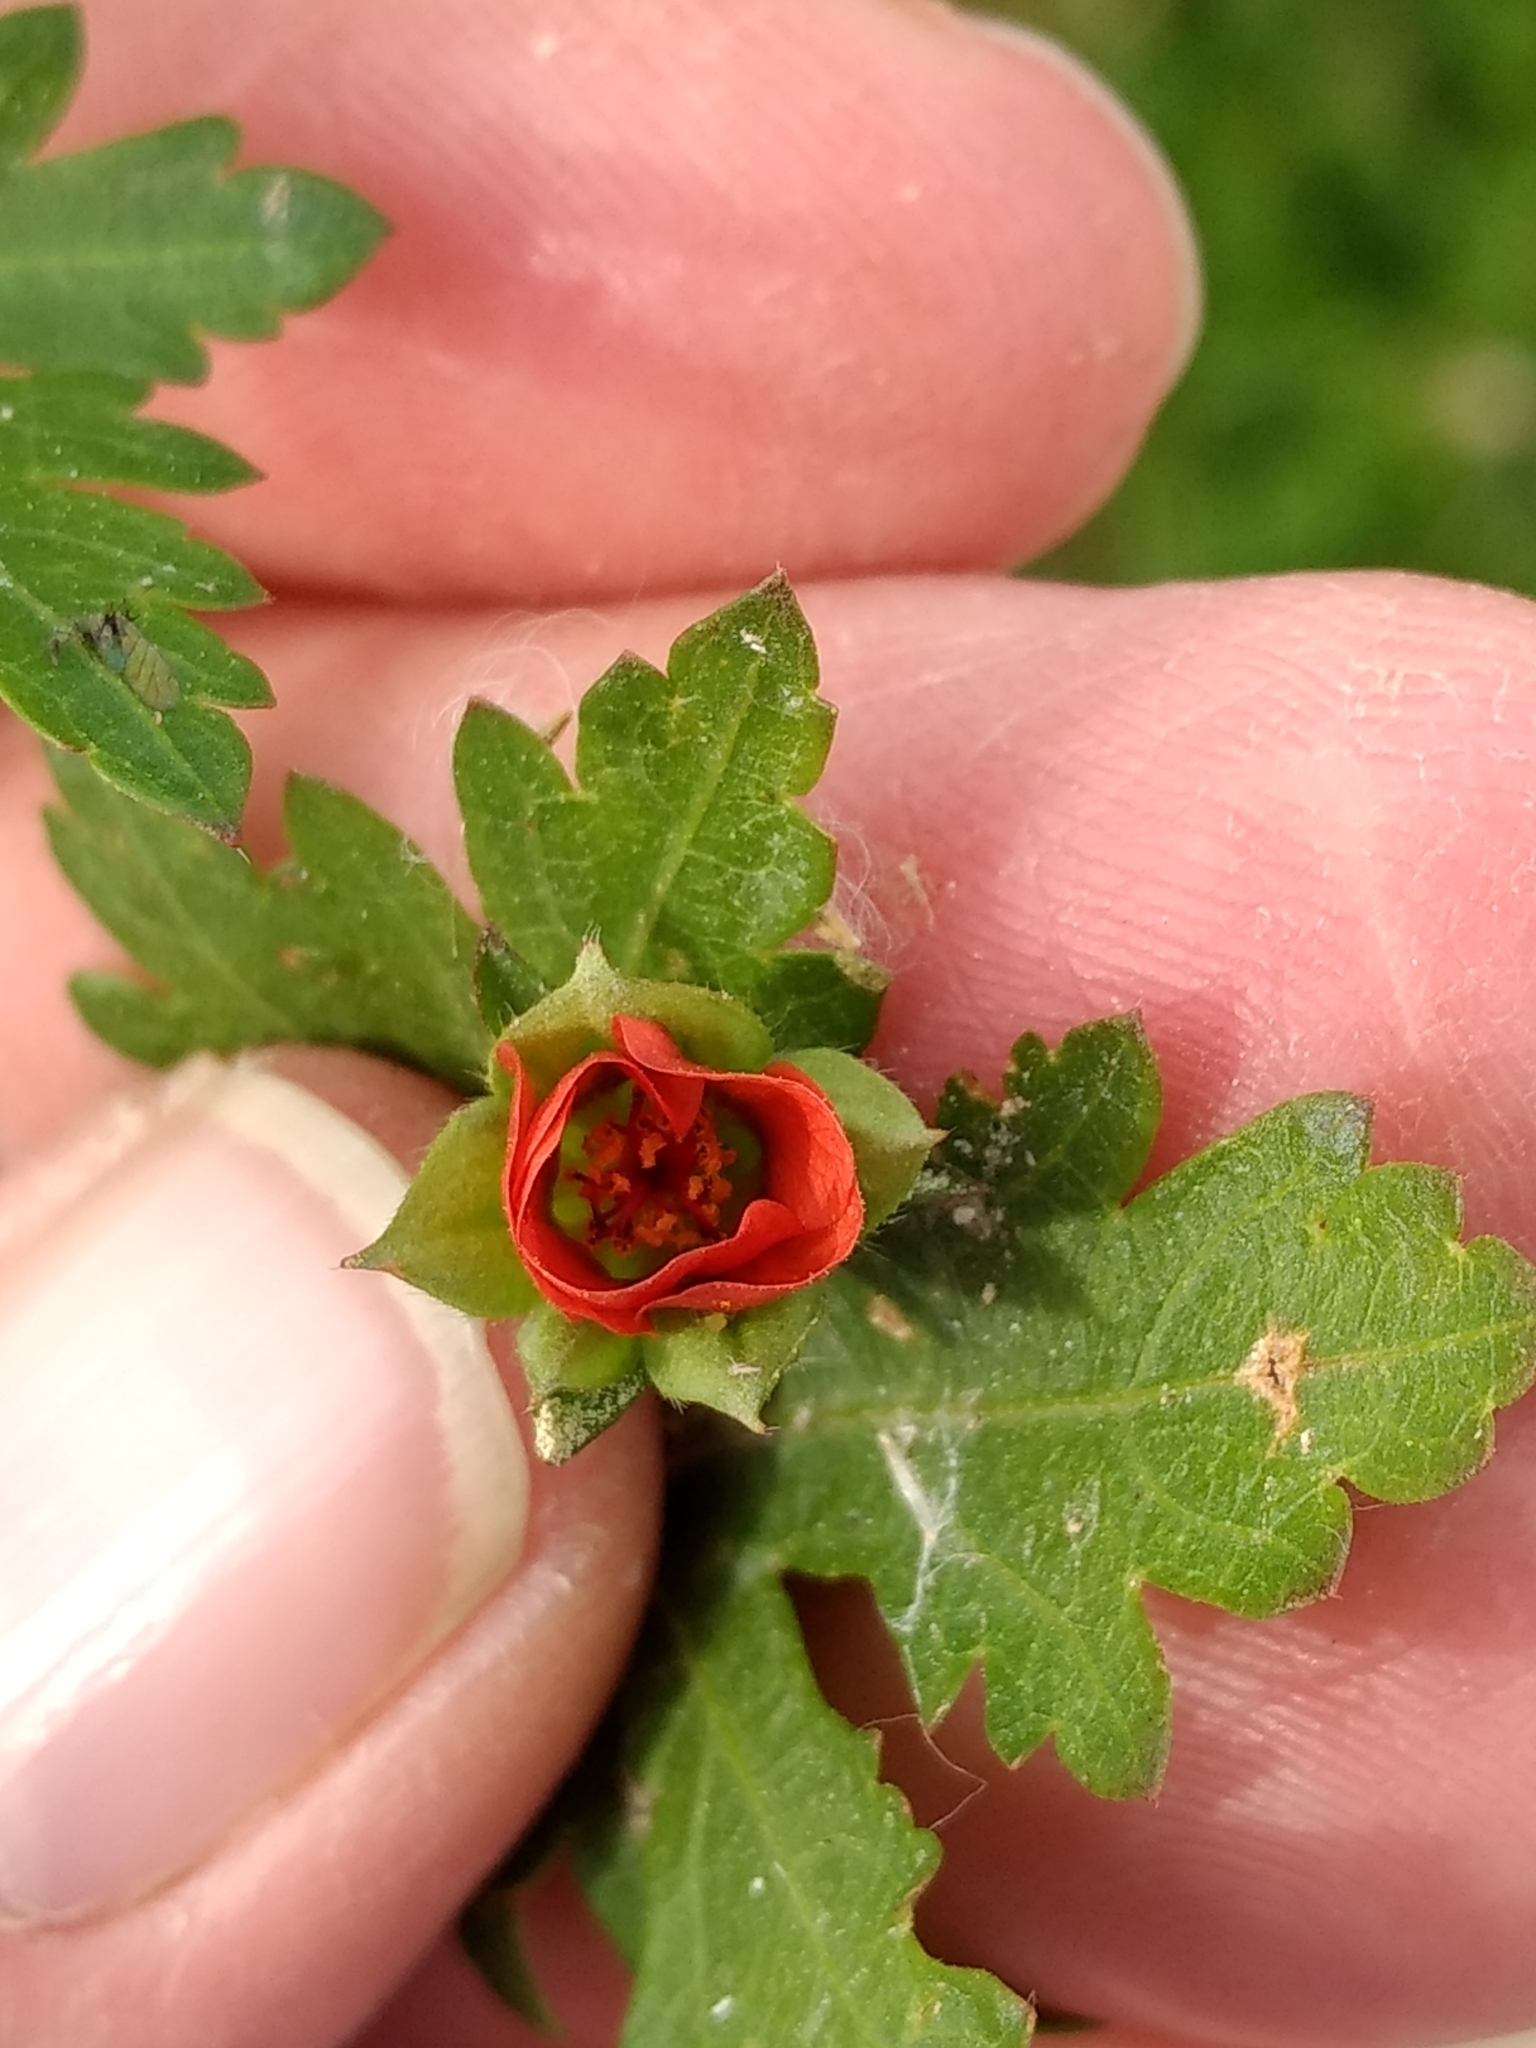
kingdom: Plantae
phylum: Tracheophyta
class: Magnoliopsida
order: Malvales
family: Malvaceae
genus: Modiola
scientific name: Modiola caroliniana
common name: Carolina bristlemallow
